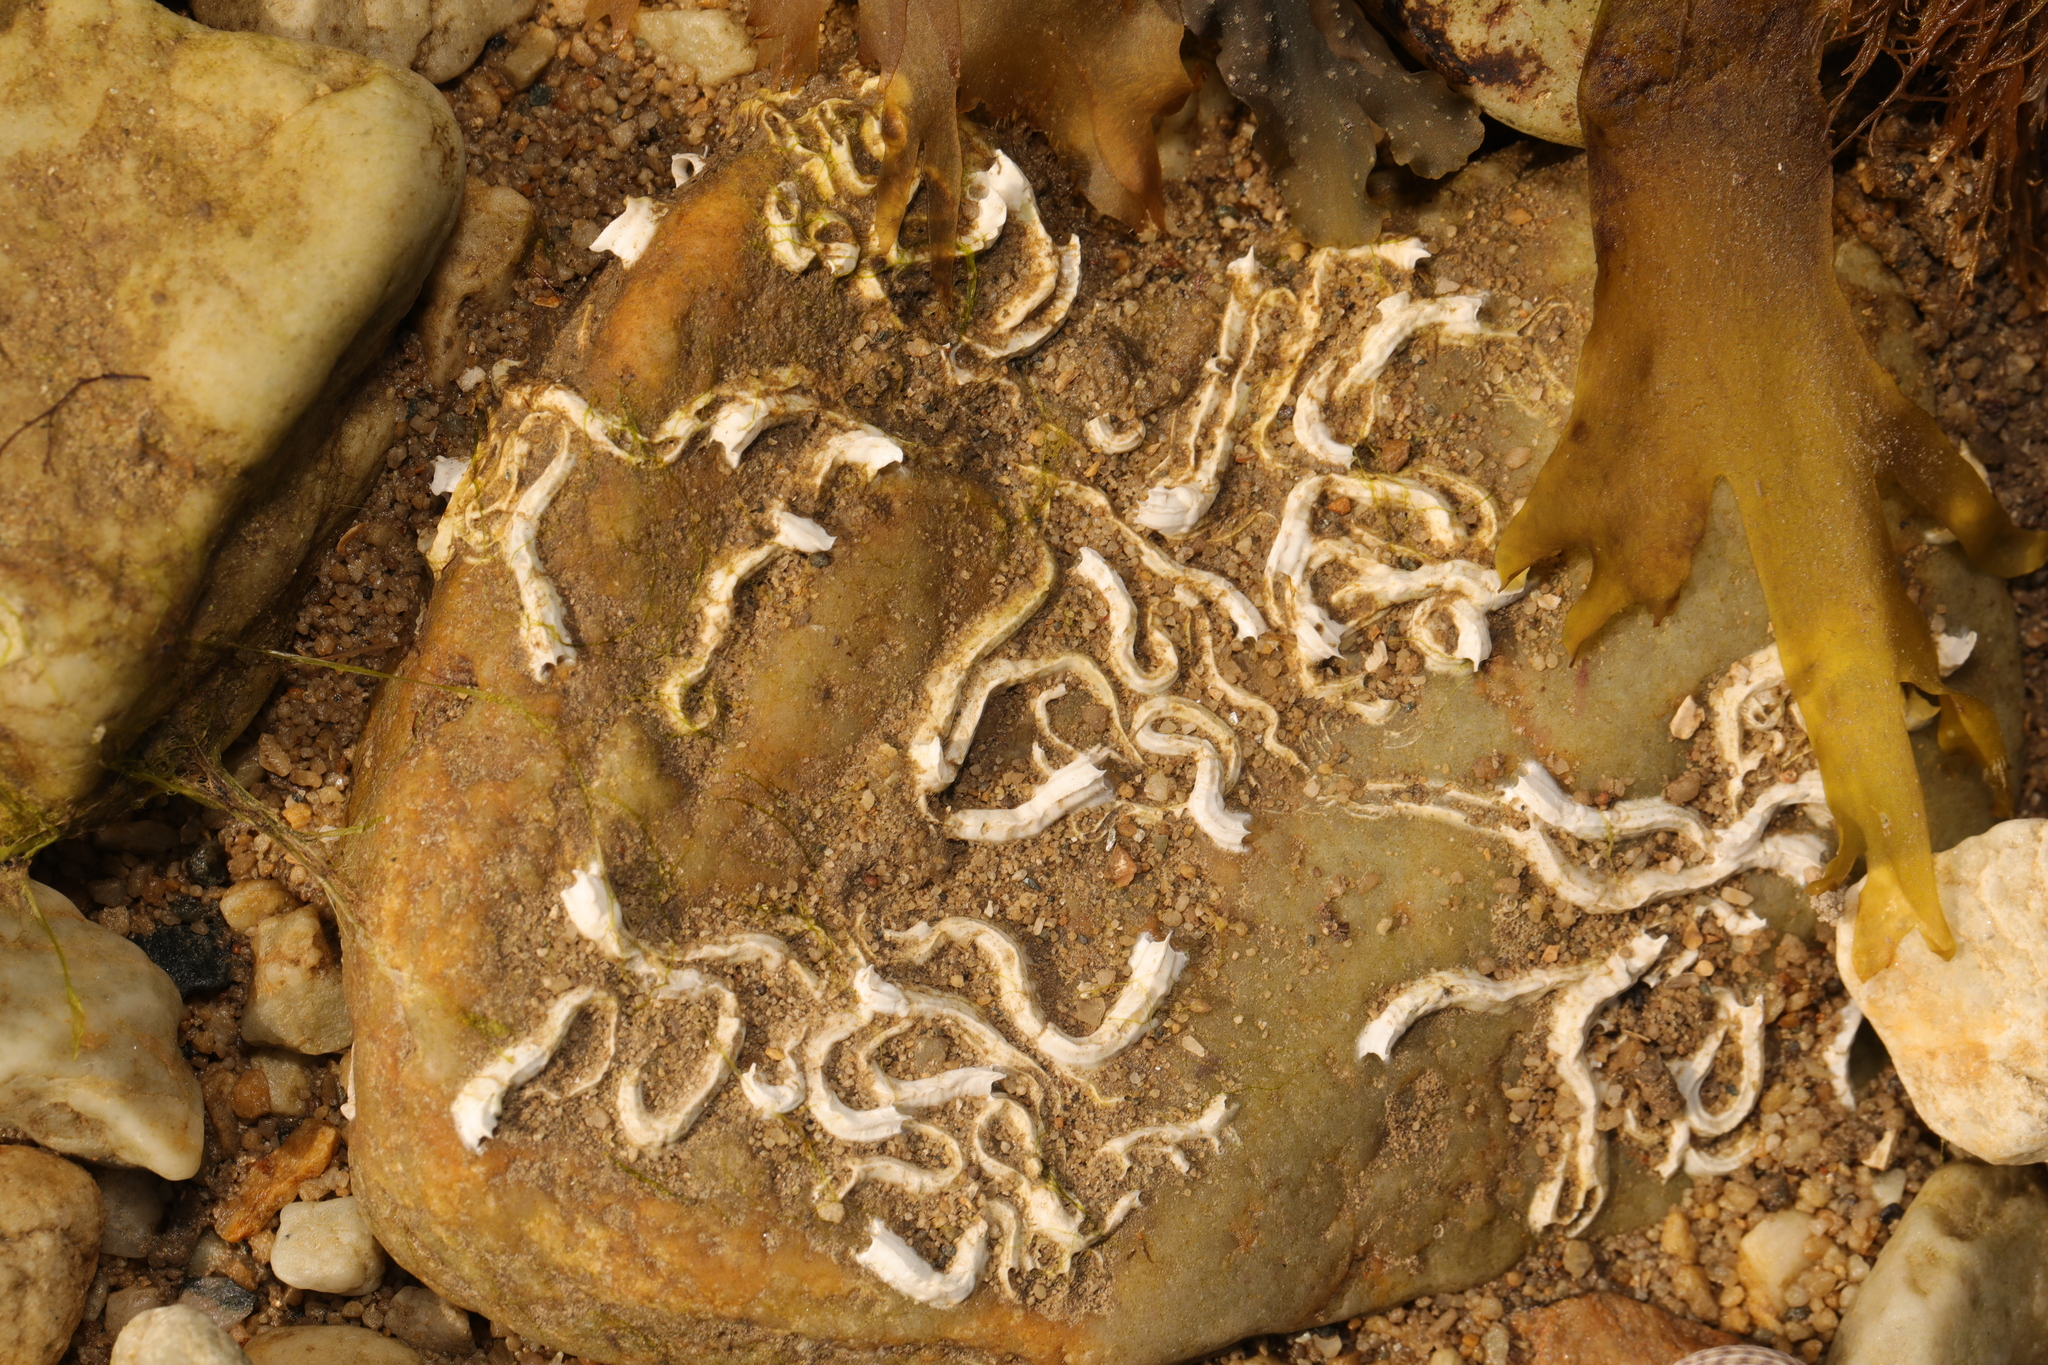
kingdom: Animalia
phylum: Annelida
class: Polychaeta
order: Sabellida
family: Serpulidae
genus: Spirobranchus
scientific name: Spirobranchus lamarcki
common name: Keelworm
